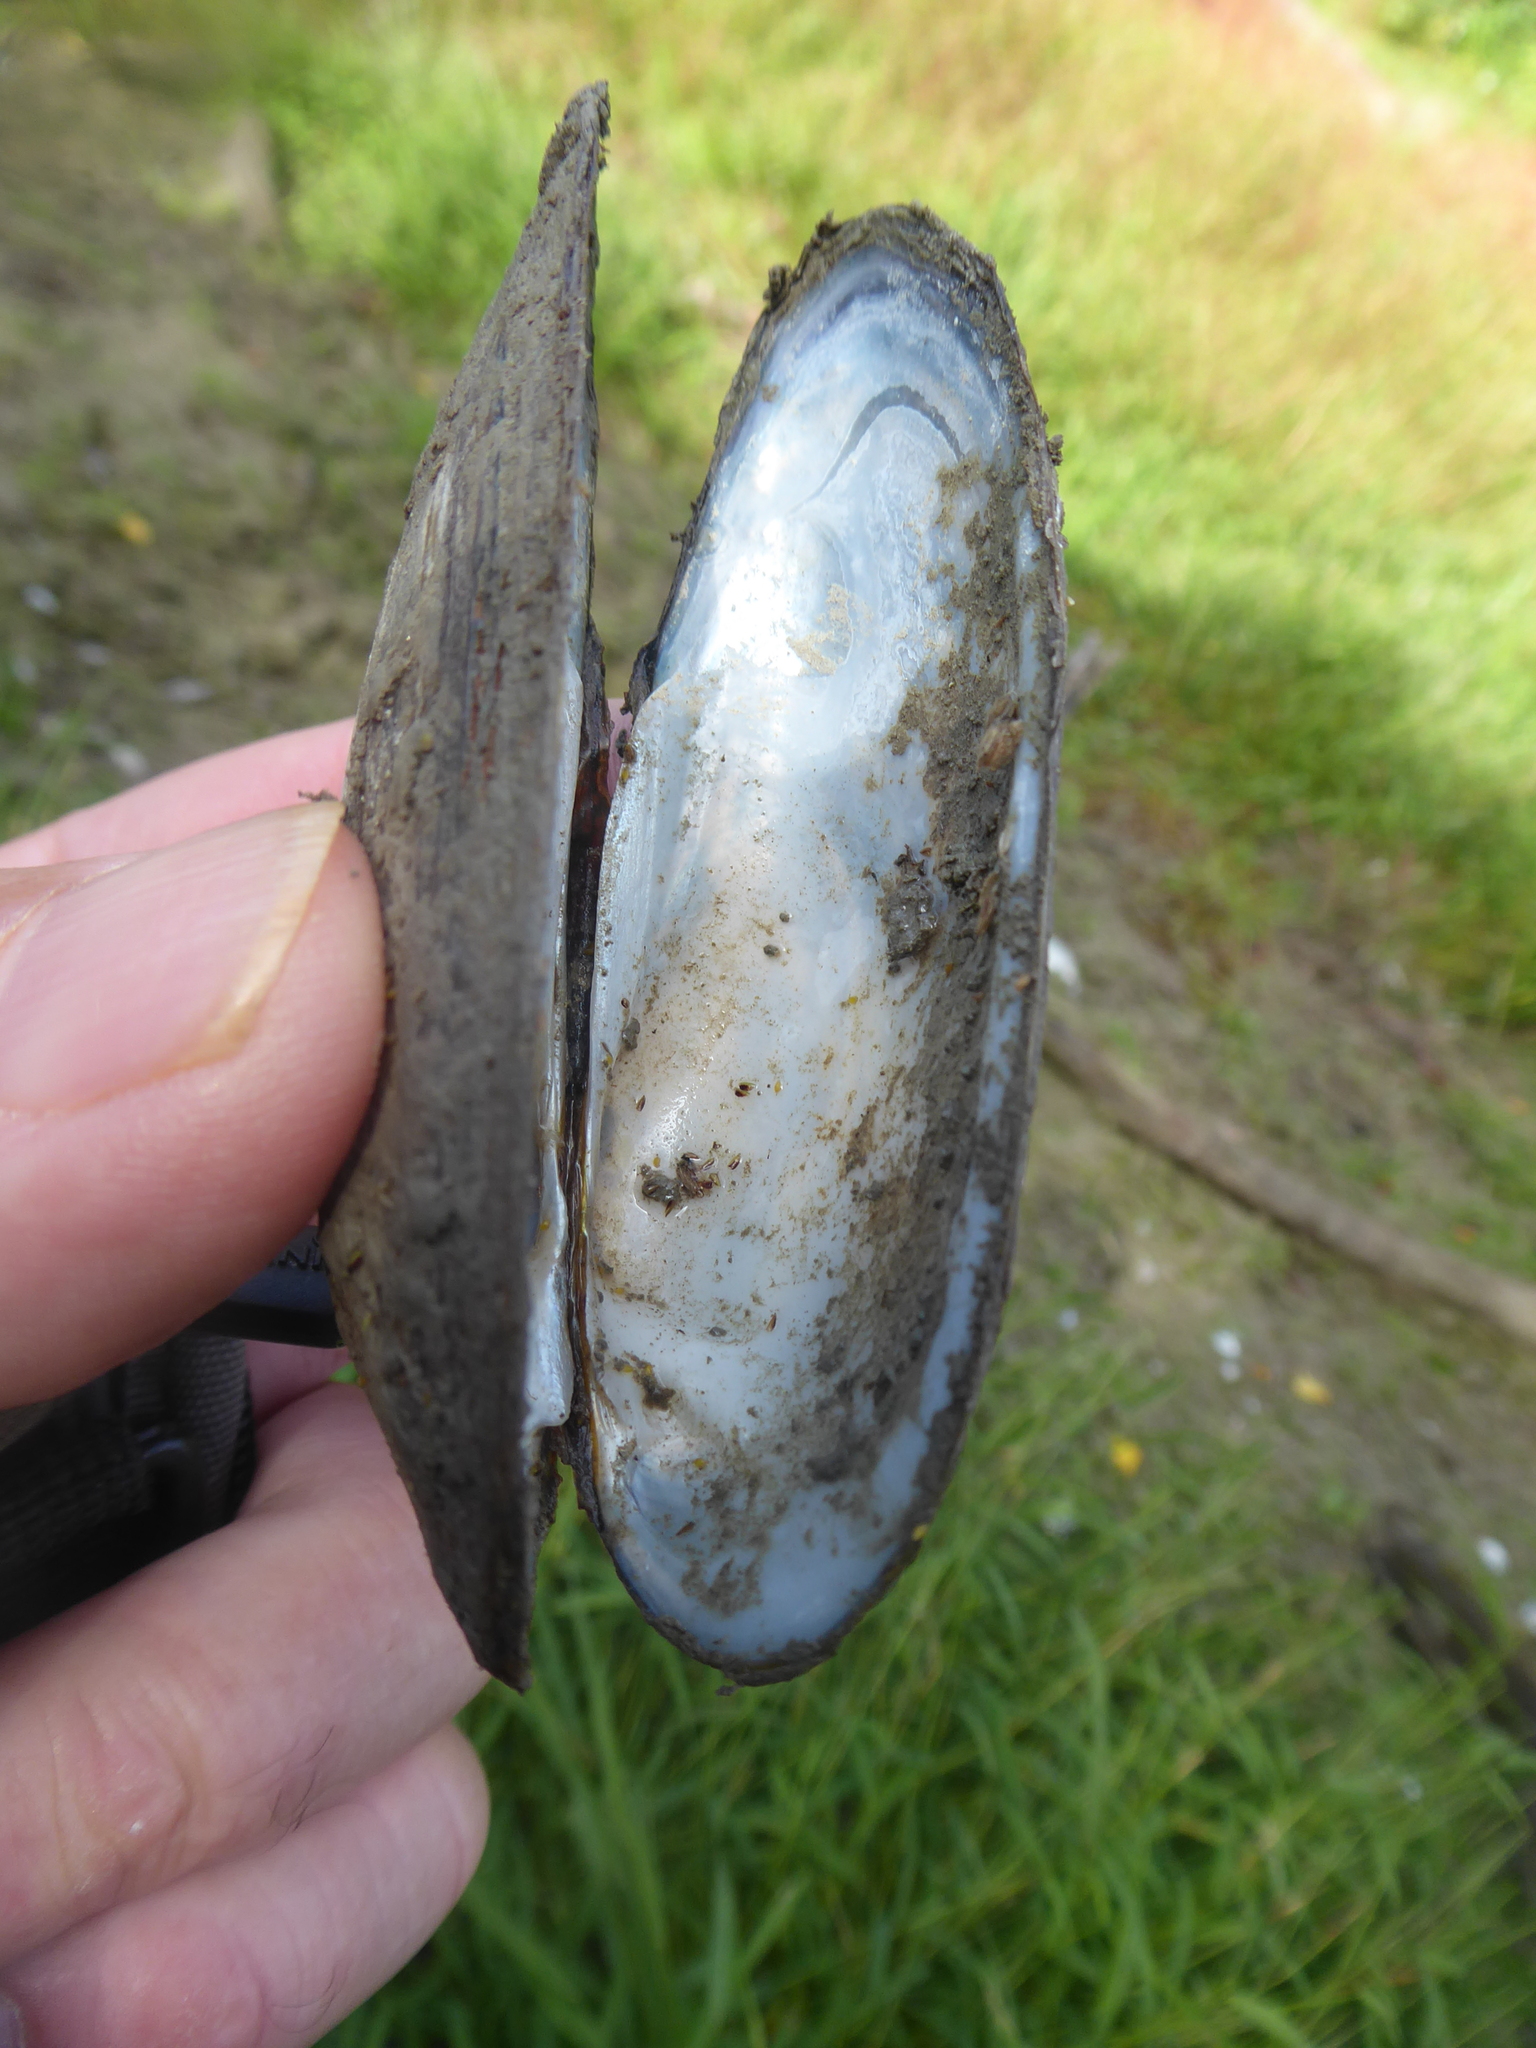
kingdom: Animalia
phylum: Mollusca
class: Bivalvia
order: Unionida
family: Unionidae
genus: Unio
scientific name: Unio pictorum
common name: Painter's mussel
